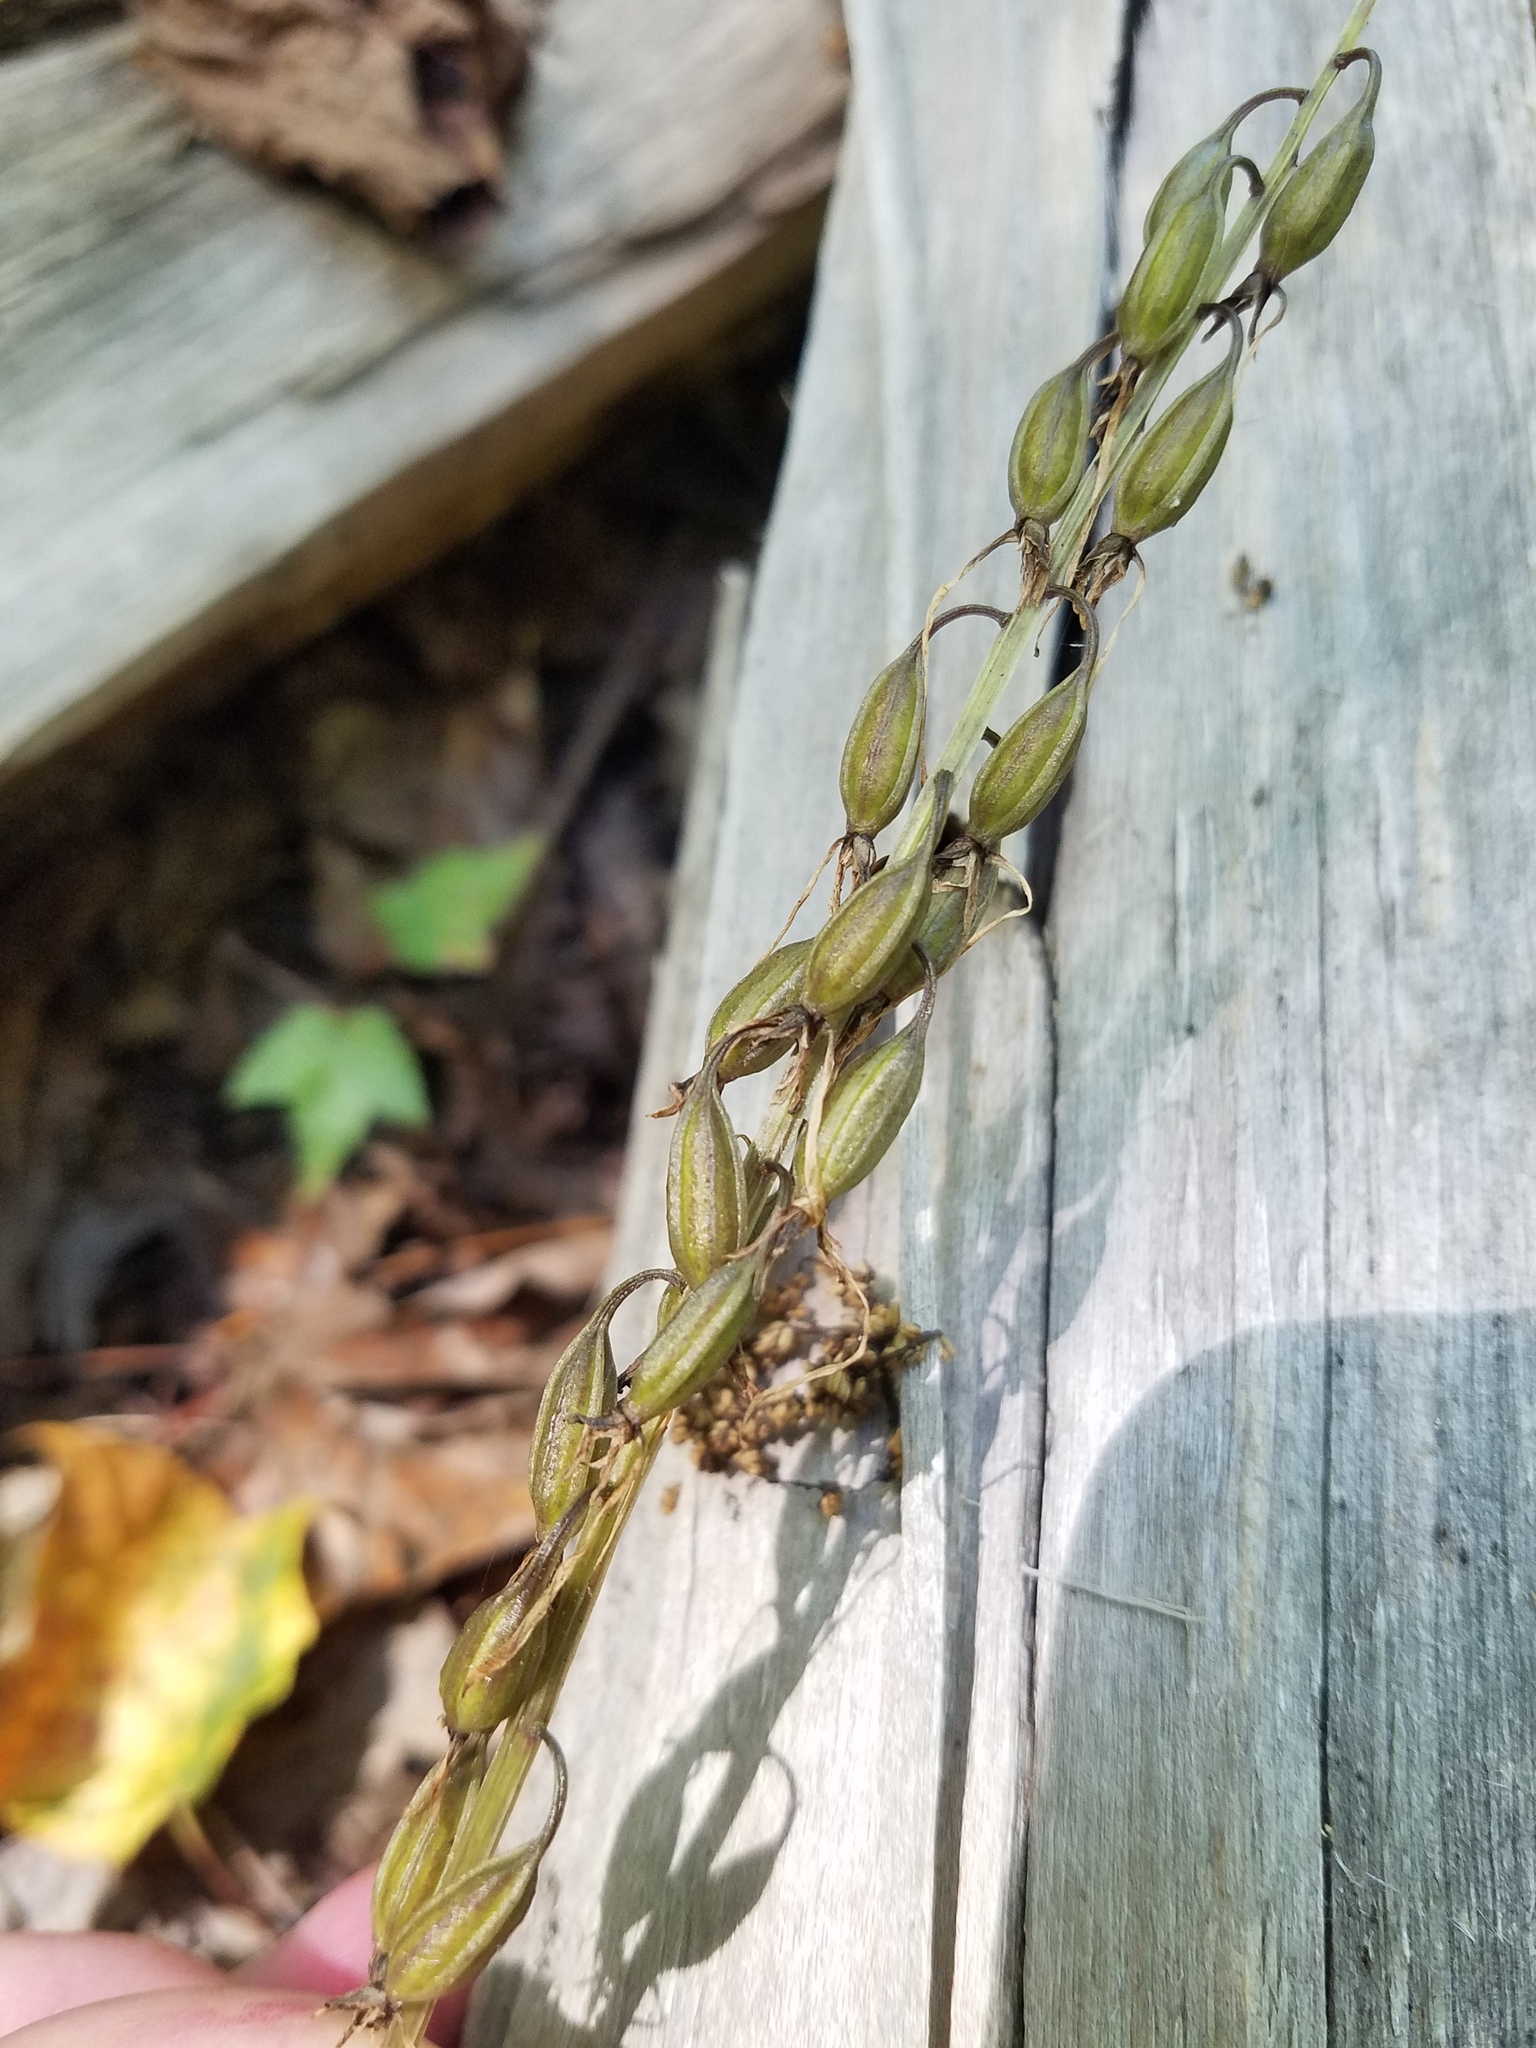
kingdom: Plantae
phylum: Tracheophyta
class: Liliopsida
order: Asparagales
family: Orchidaceae
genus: Tipularia
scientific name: Tipularia discolor
